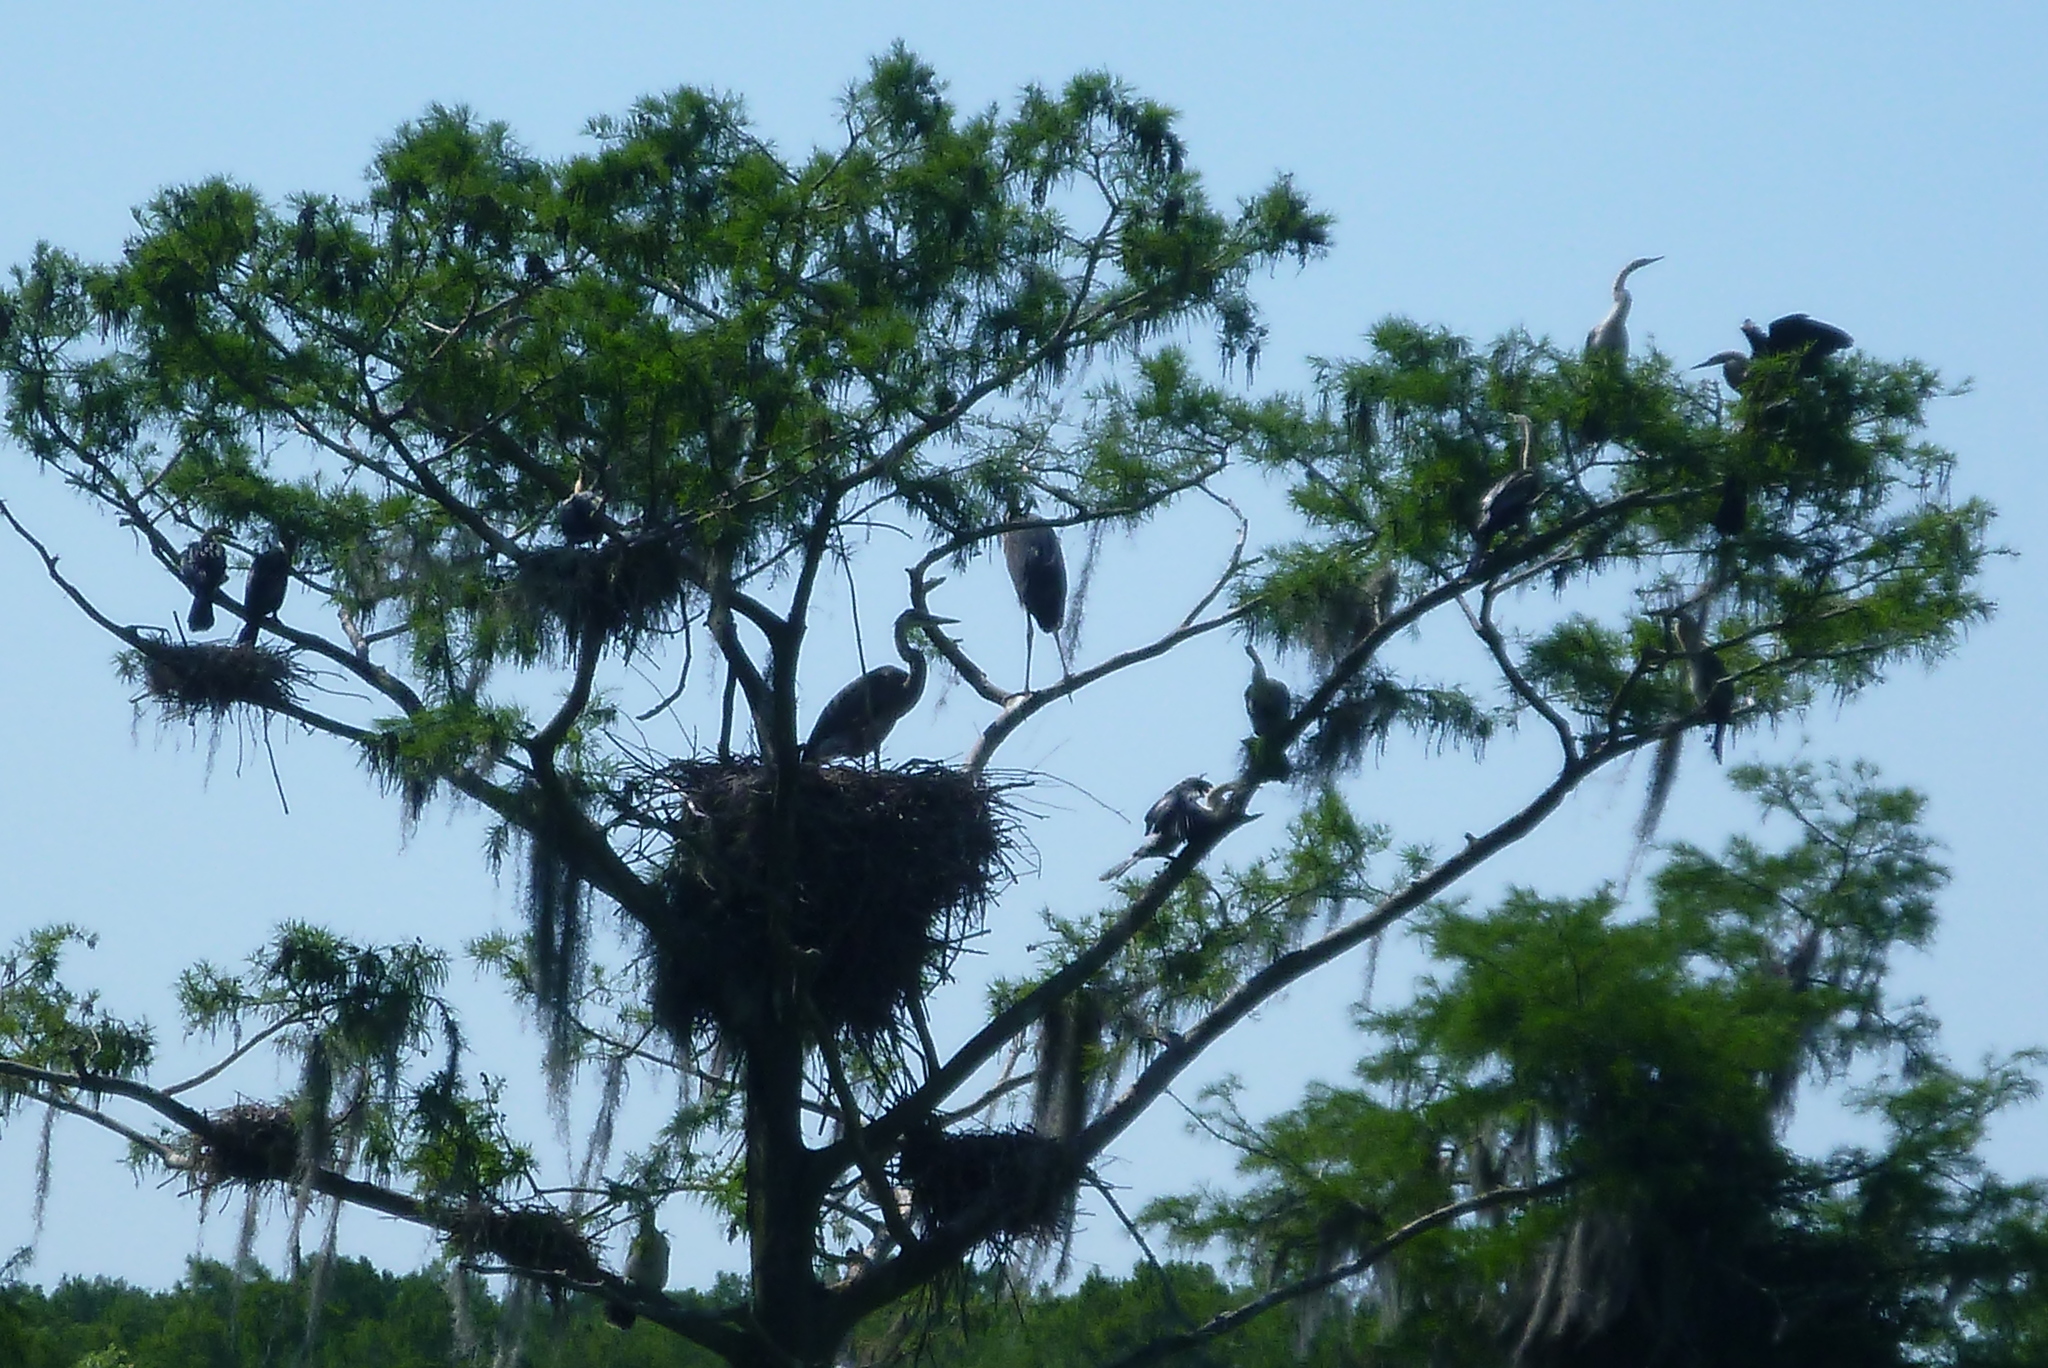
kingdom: Animalia
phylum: Chordata
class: Aves
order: Pelecaniformes
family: Ardeidae
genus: Ardea
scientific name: Ardea herodias
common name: Great blue heron
